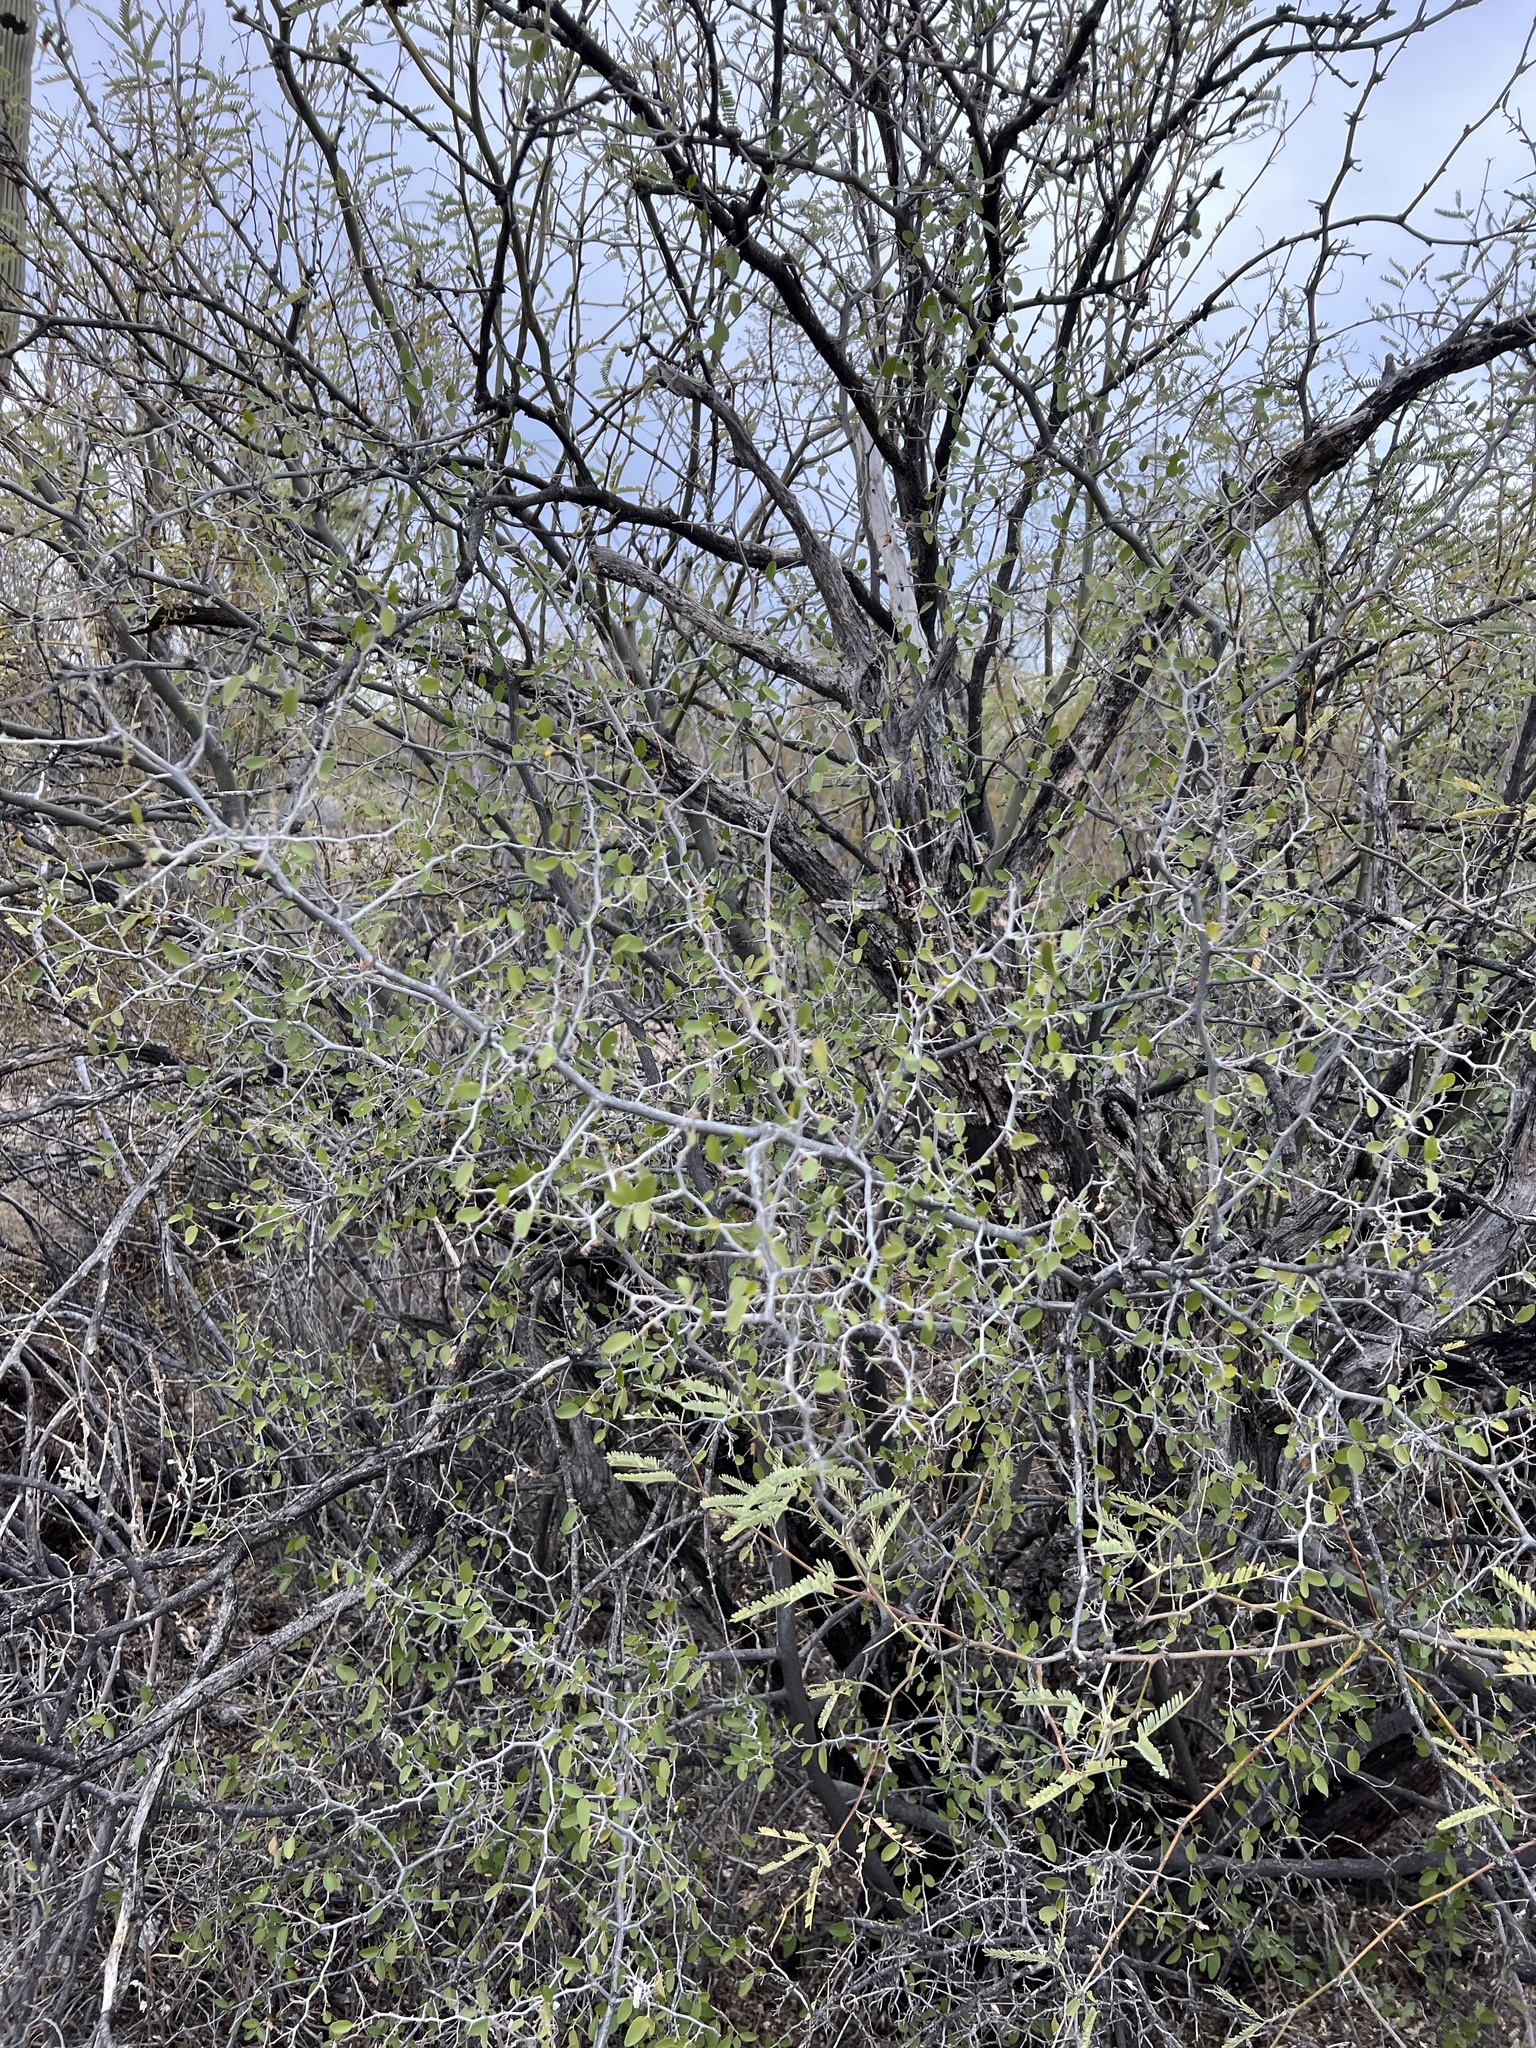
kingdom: Plantae
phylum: Tracheophyta
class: Magnoliopsida
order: Rosales
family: Cannabaceae
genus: Celtis
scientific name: Celtis pallida
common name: Desert hackberry
